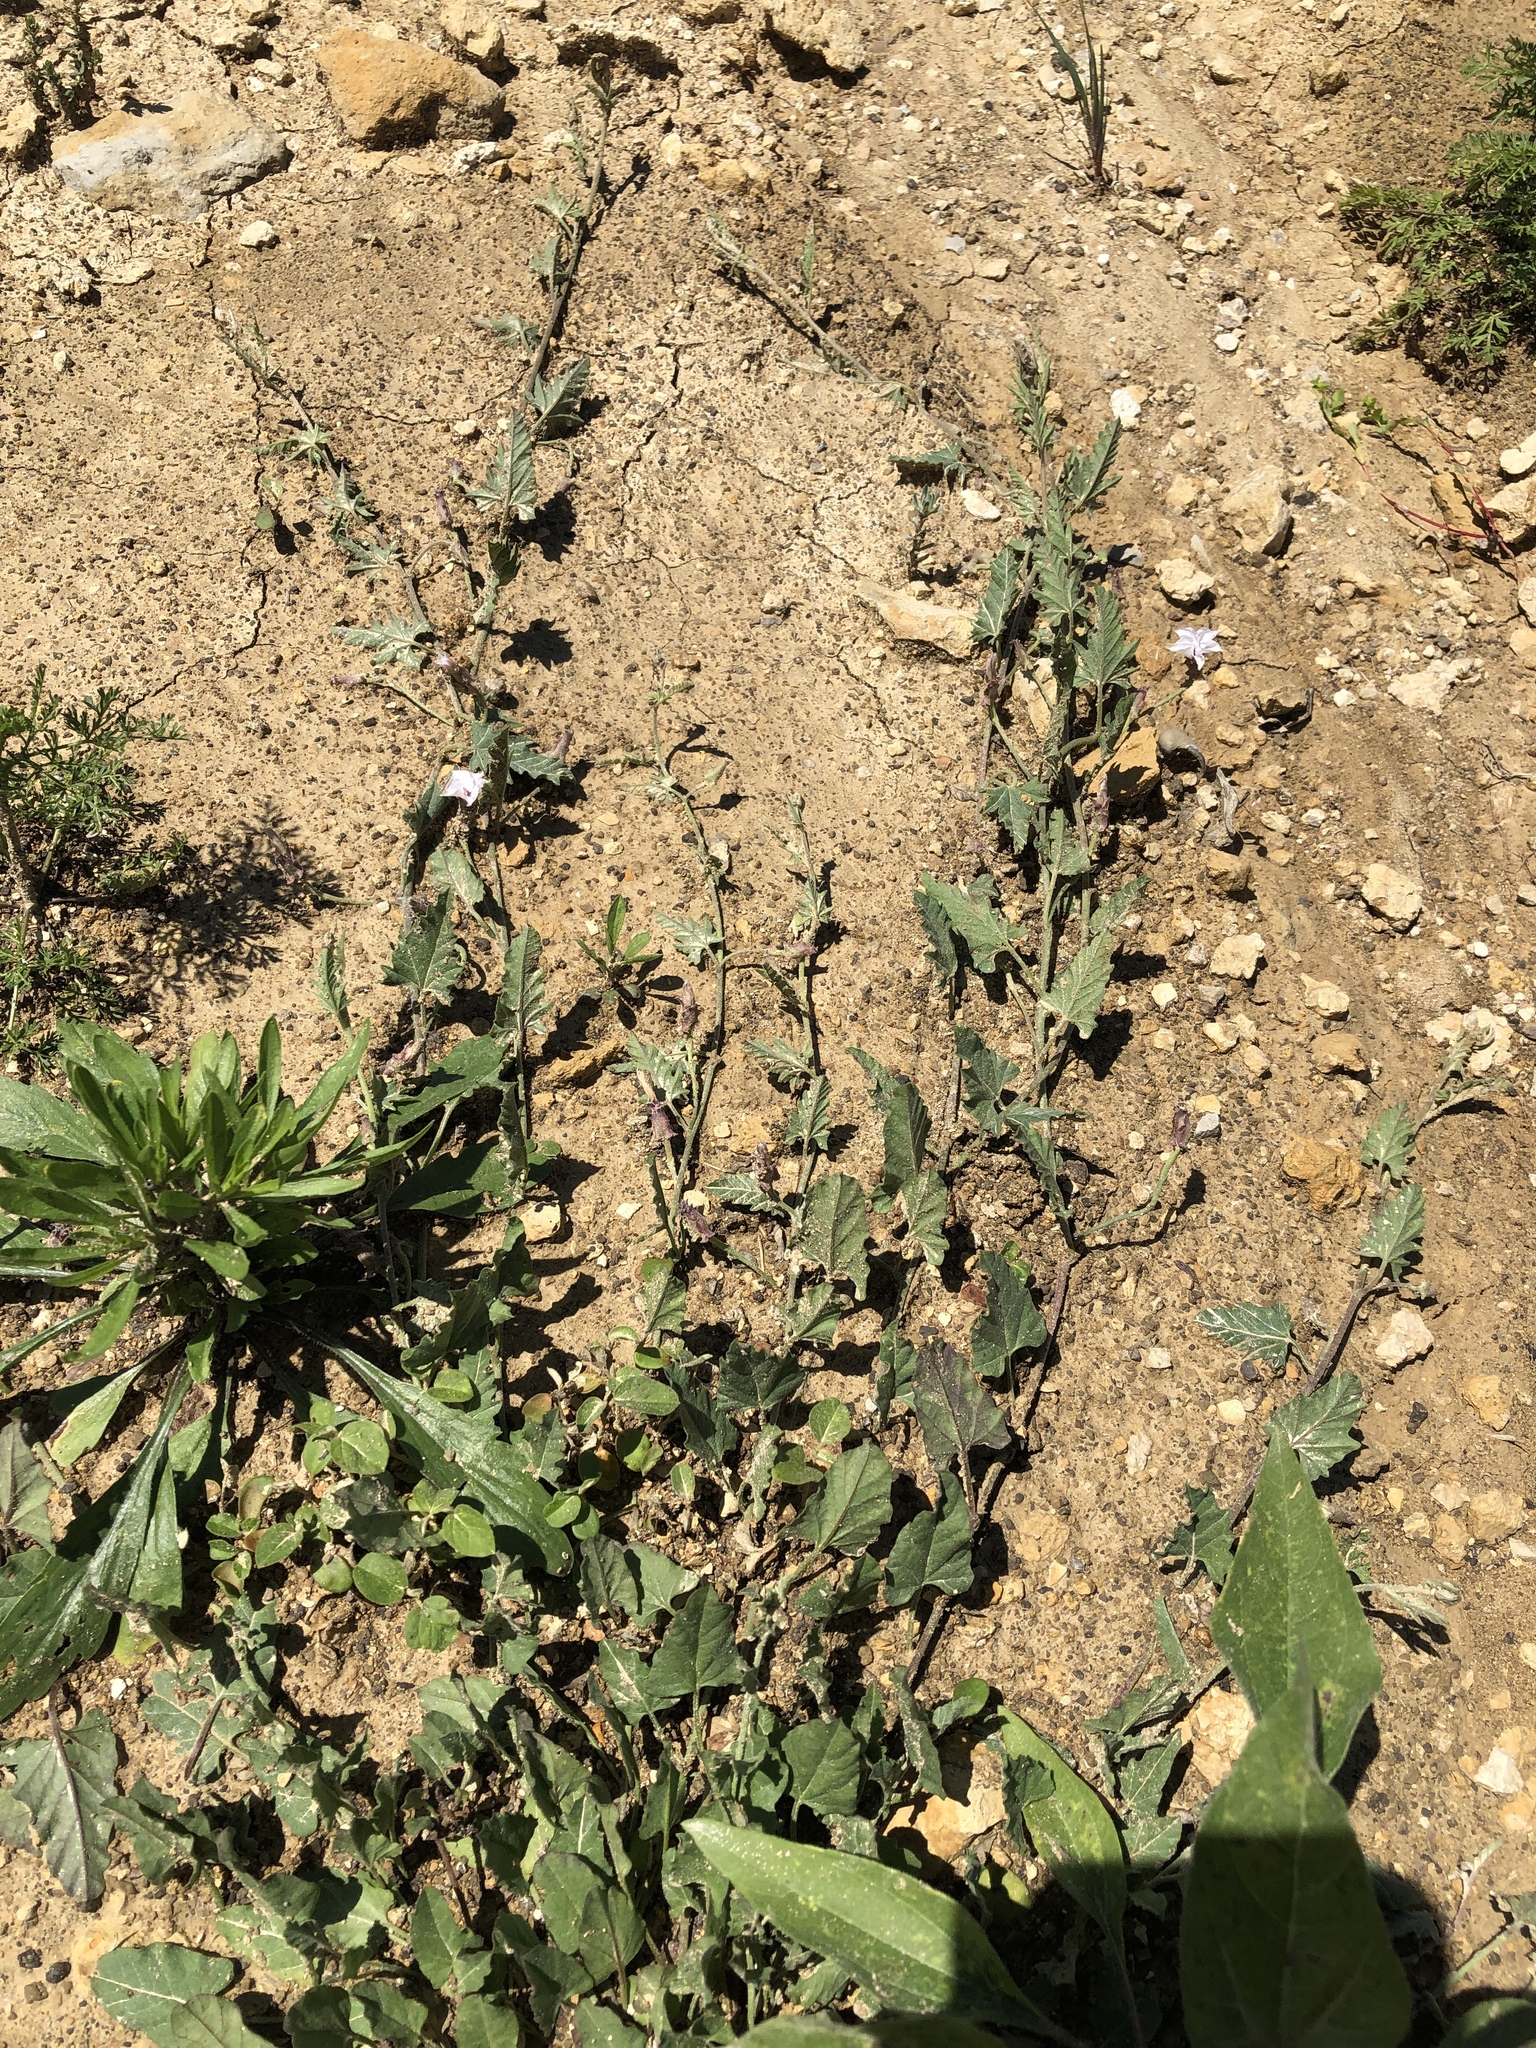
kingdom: Plantae
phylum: Tracheophyta
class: Magnoliopsida
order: Solanales
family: Convolvulaceae
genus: Convolvulus
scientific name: Convolvulus equitans
